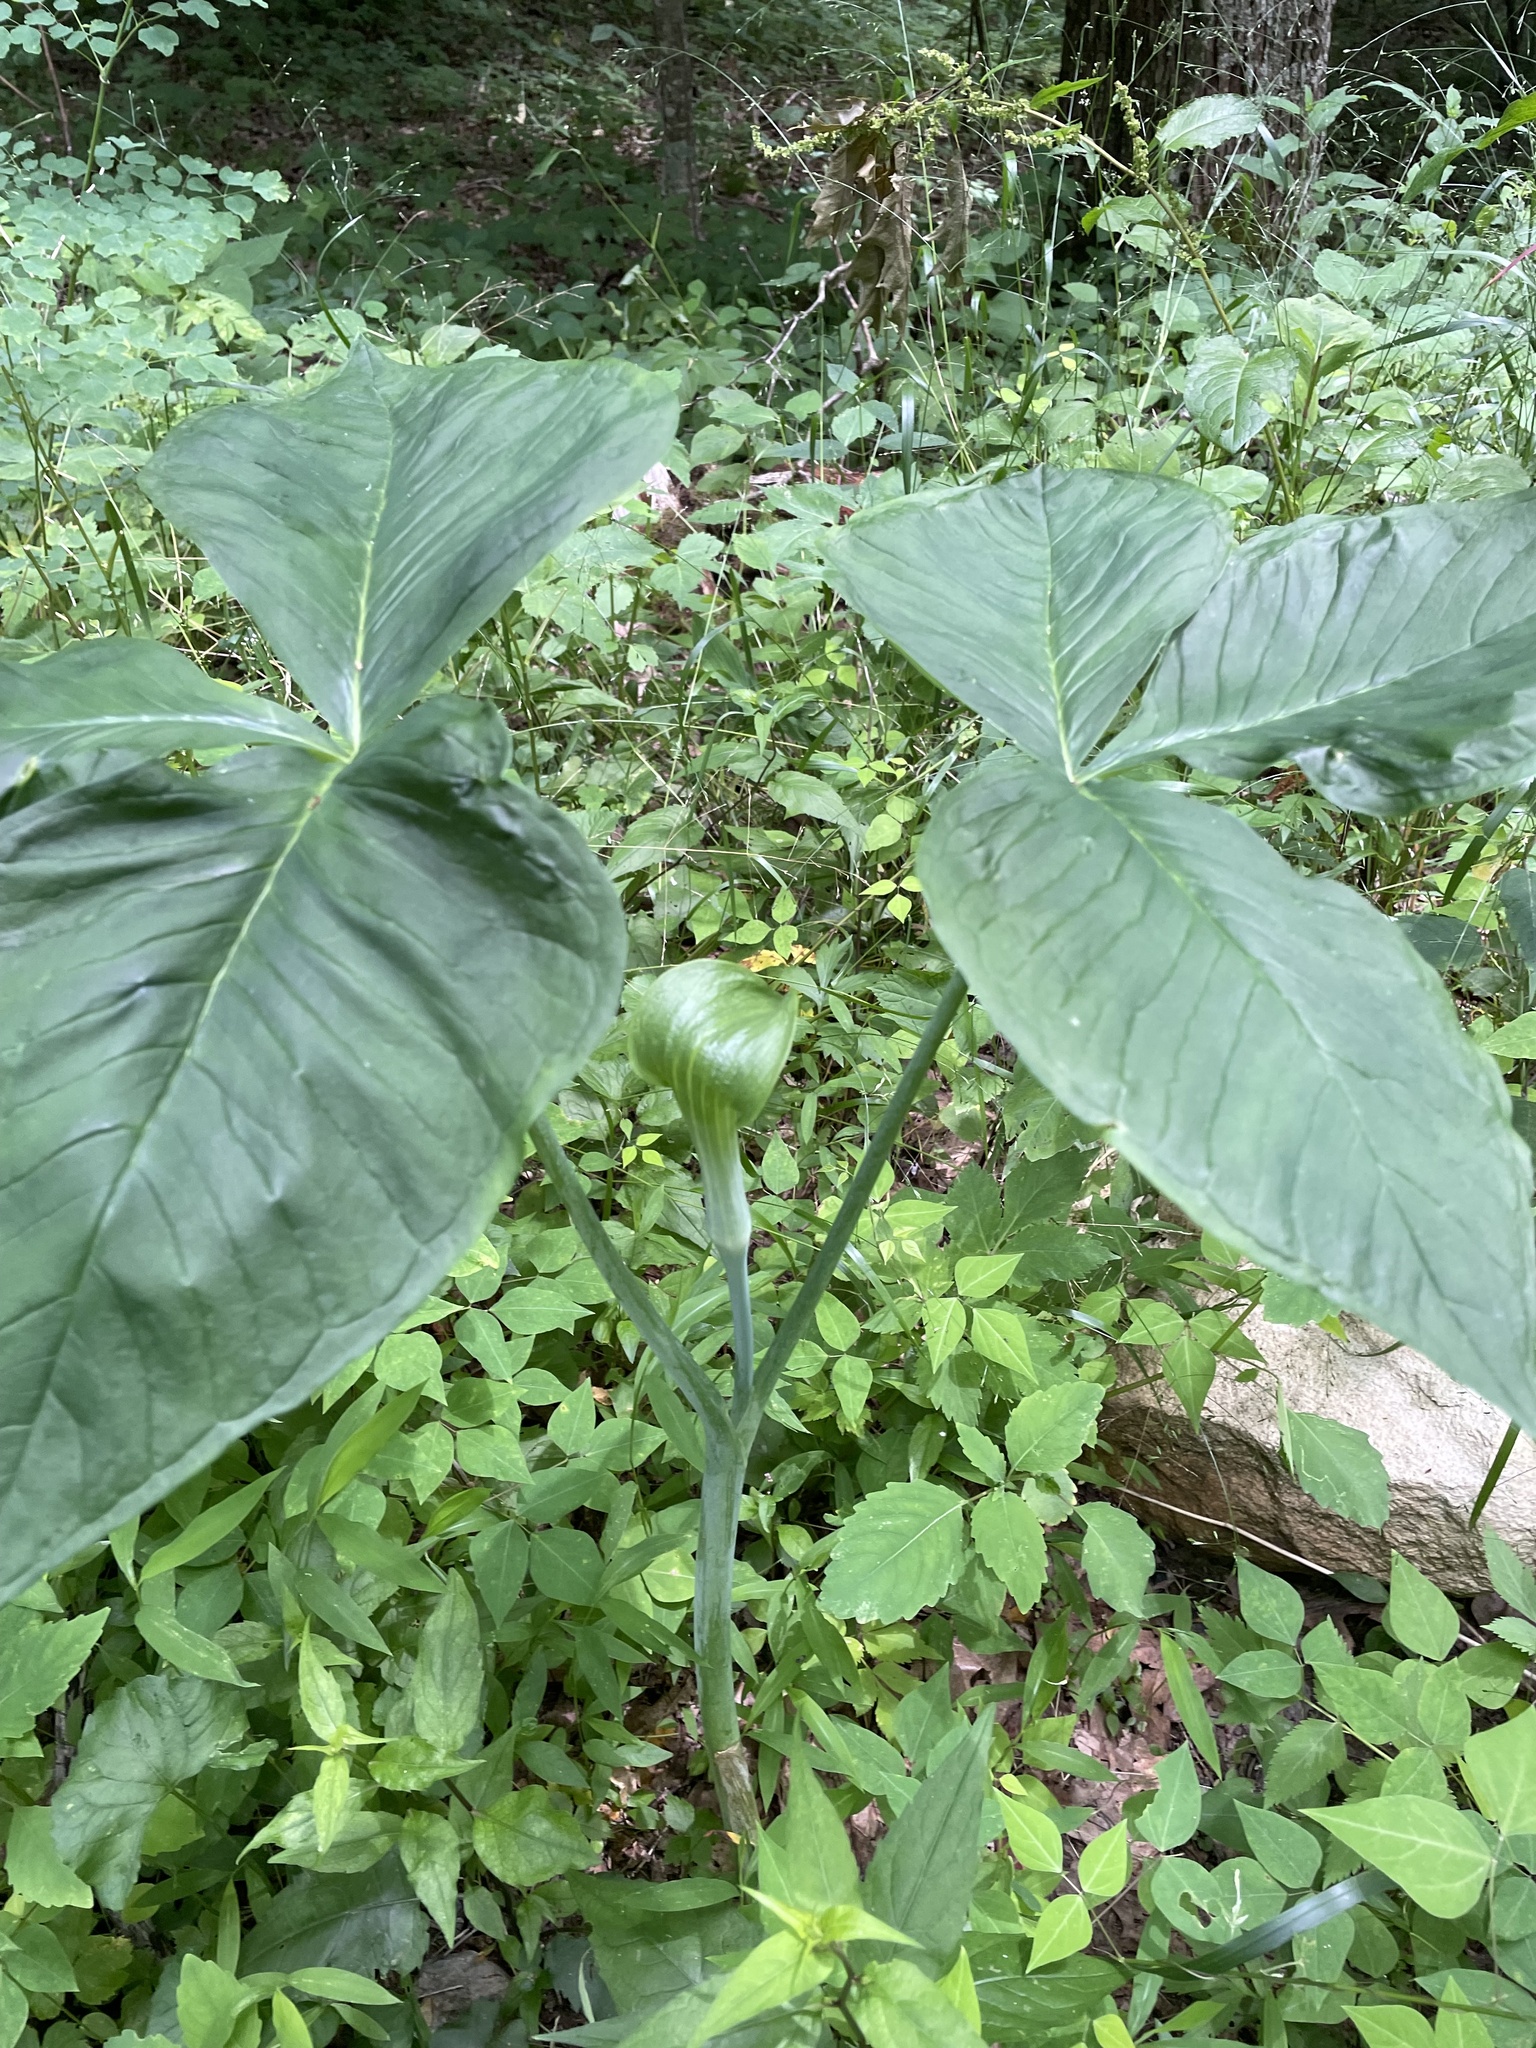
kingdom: Plantae
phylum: Tracheophyta
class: Liliopsida
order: Alismatales
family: Araceae
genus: Arisaema
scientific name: Arisaema triphyllum
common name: Jack-in-the-pulpit
